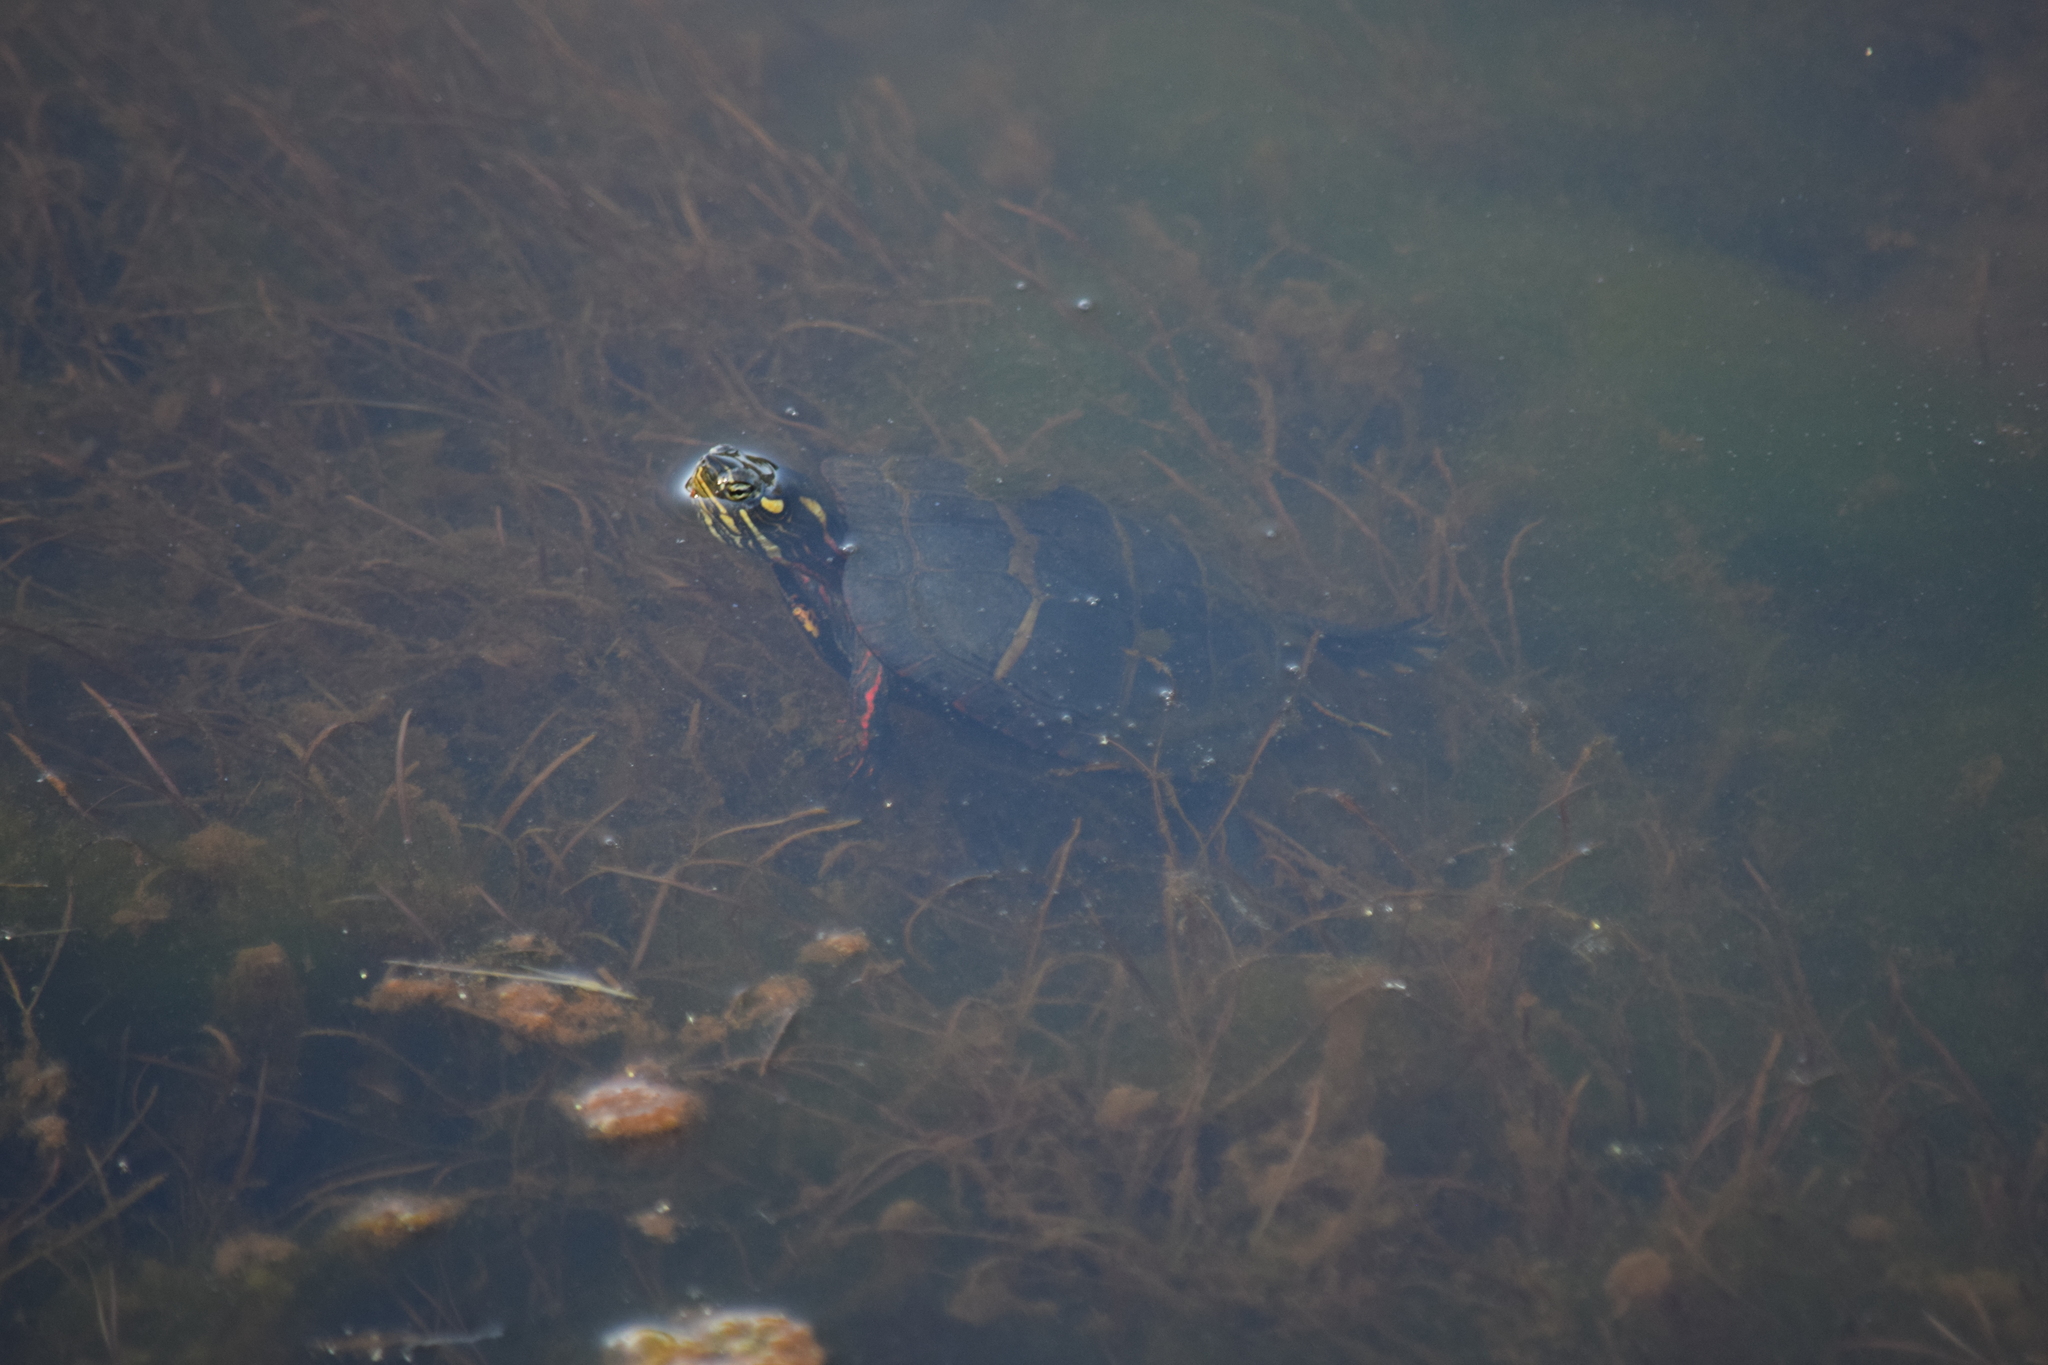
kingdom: Animalia
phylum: Chordata
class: Testudines
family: Emydidae
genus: Chrysemys
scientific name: Chrysemys picta
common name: Painted turtle
